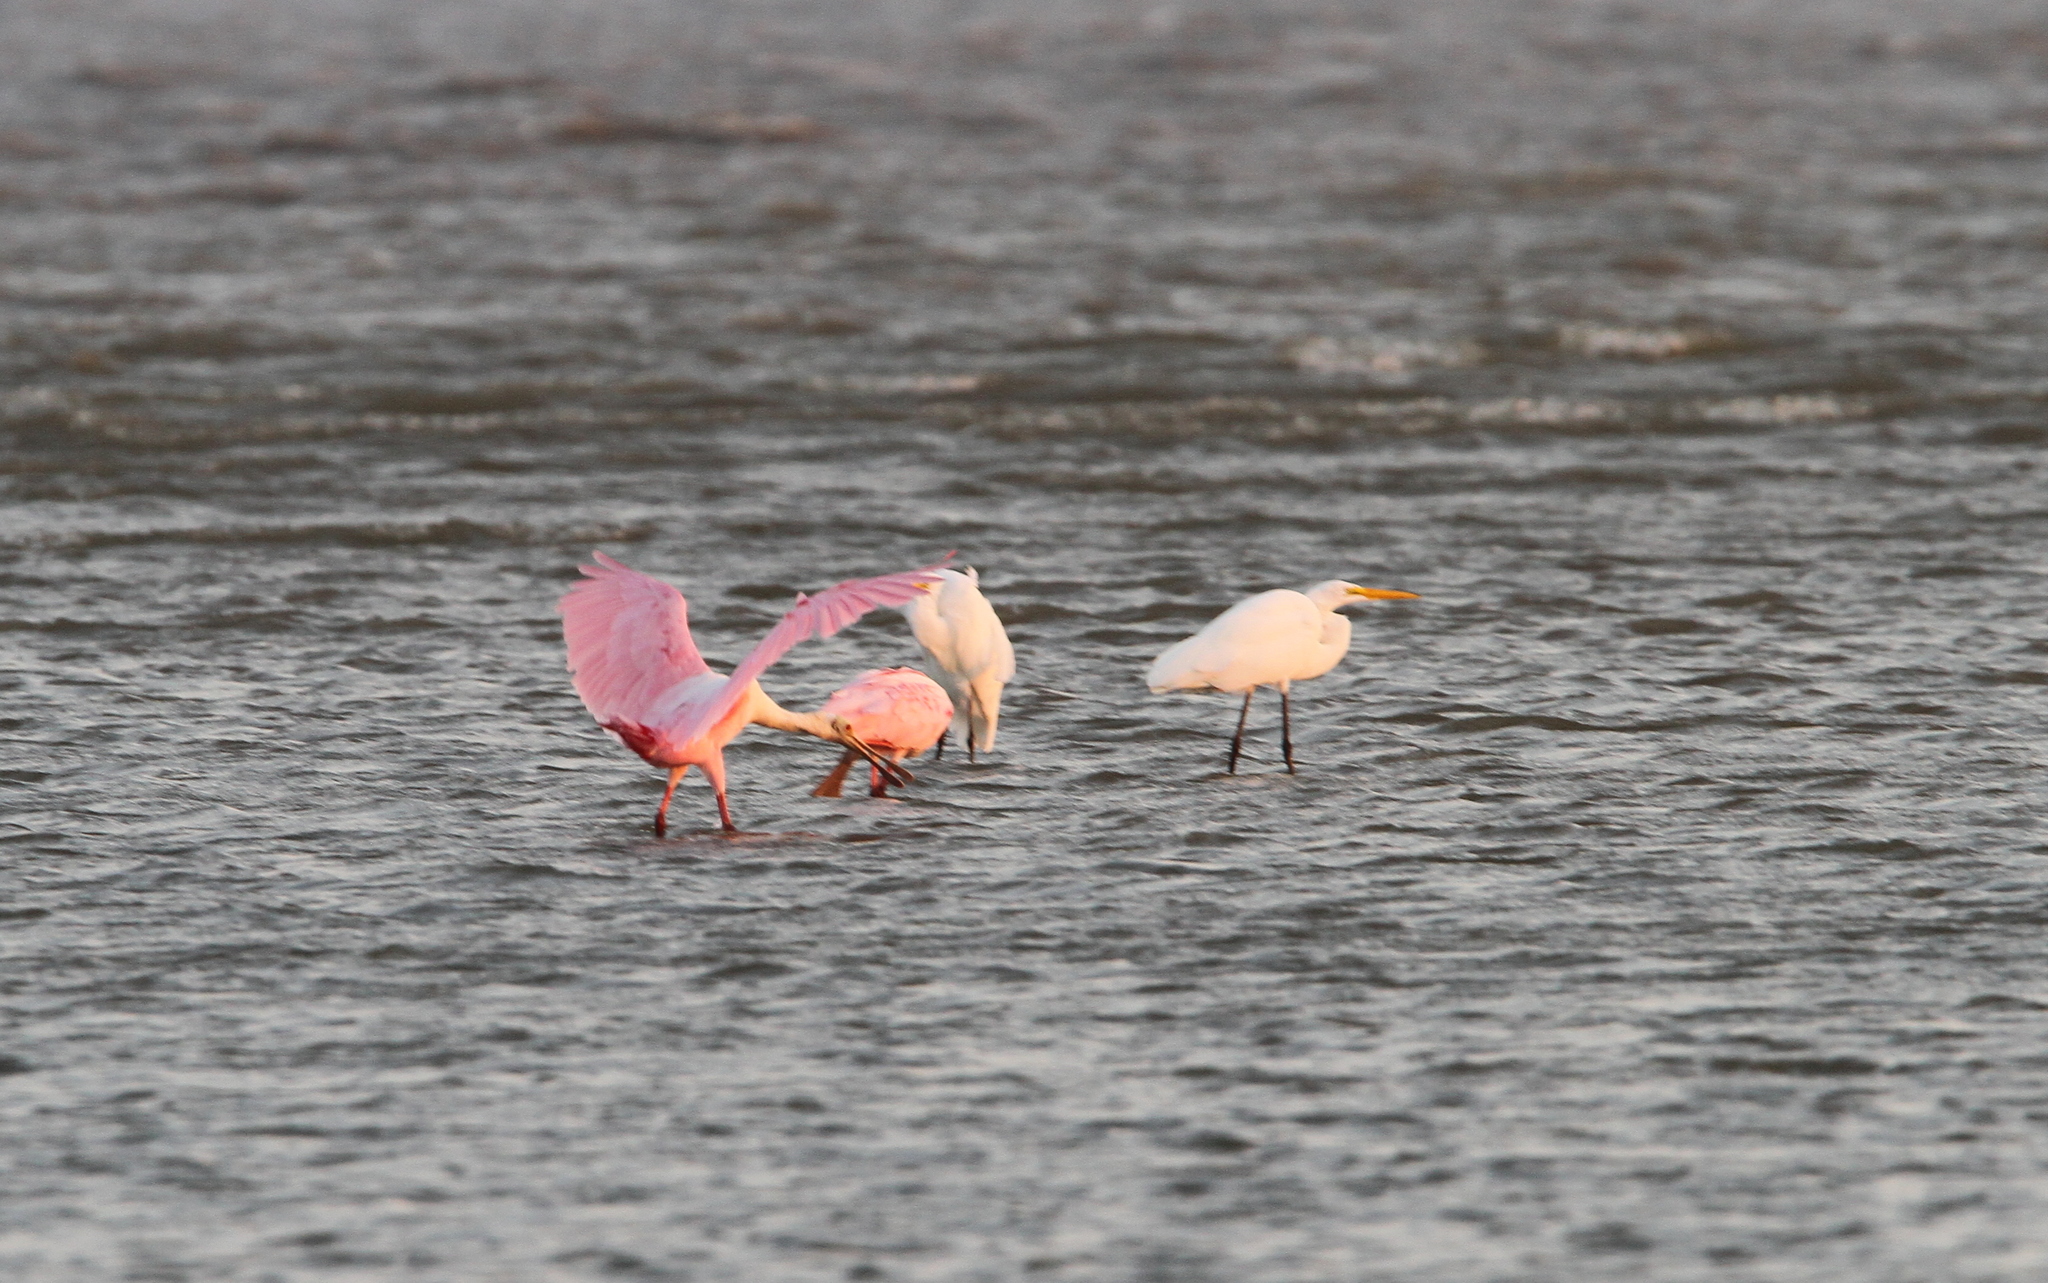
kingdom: Animalia
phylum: Chordata
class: Aves
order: Pelecaniformes
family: Threskiornithidae
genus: Platalea
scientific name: Platalea ajaja
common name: Roseate spoonbill
